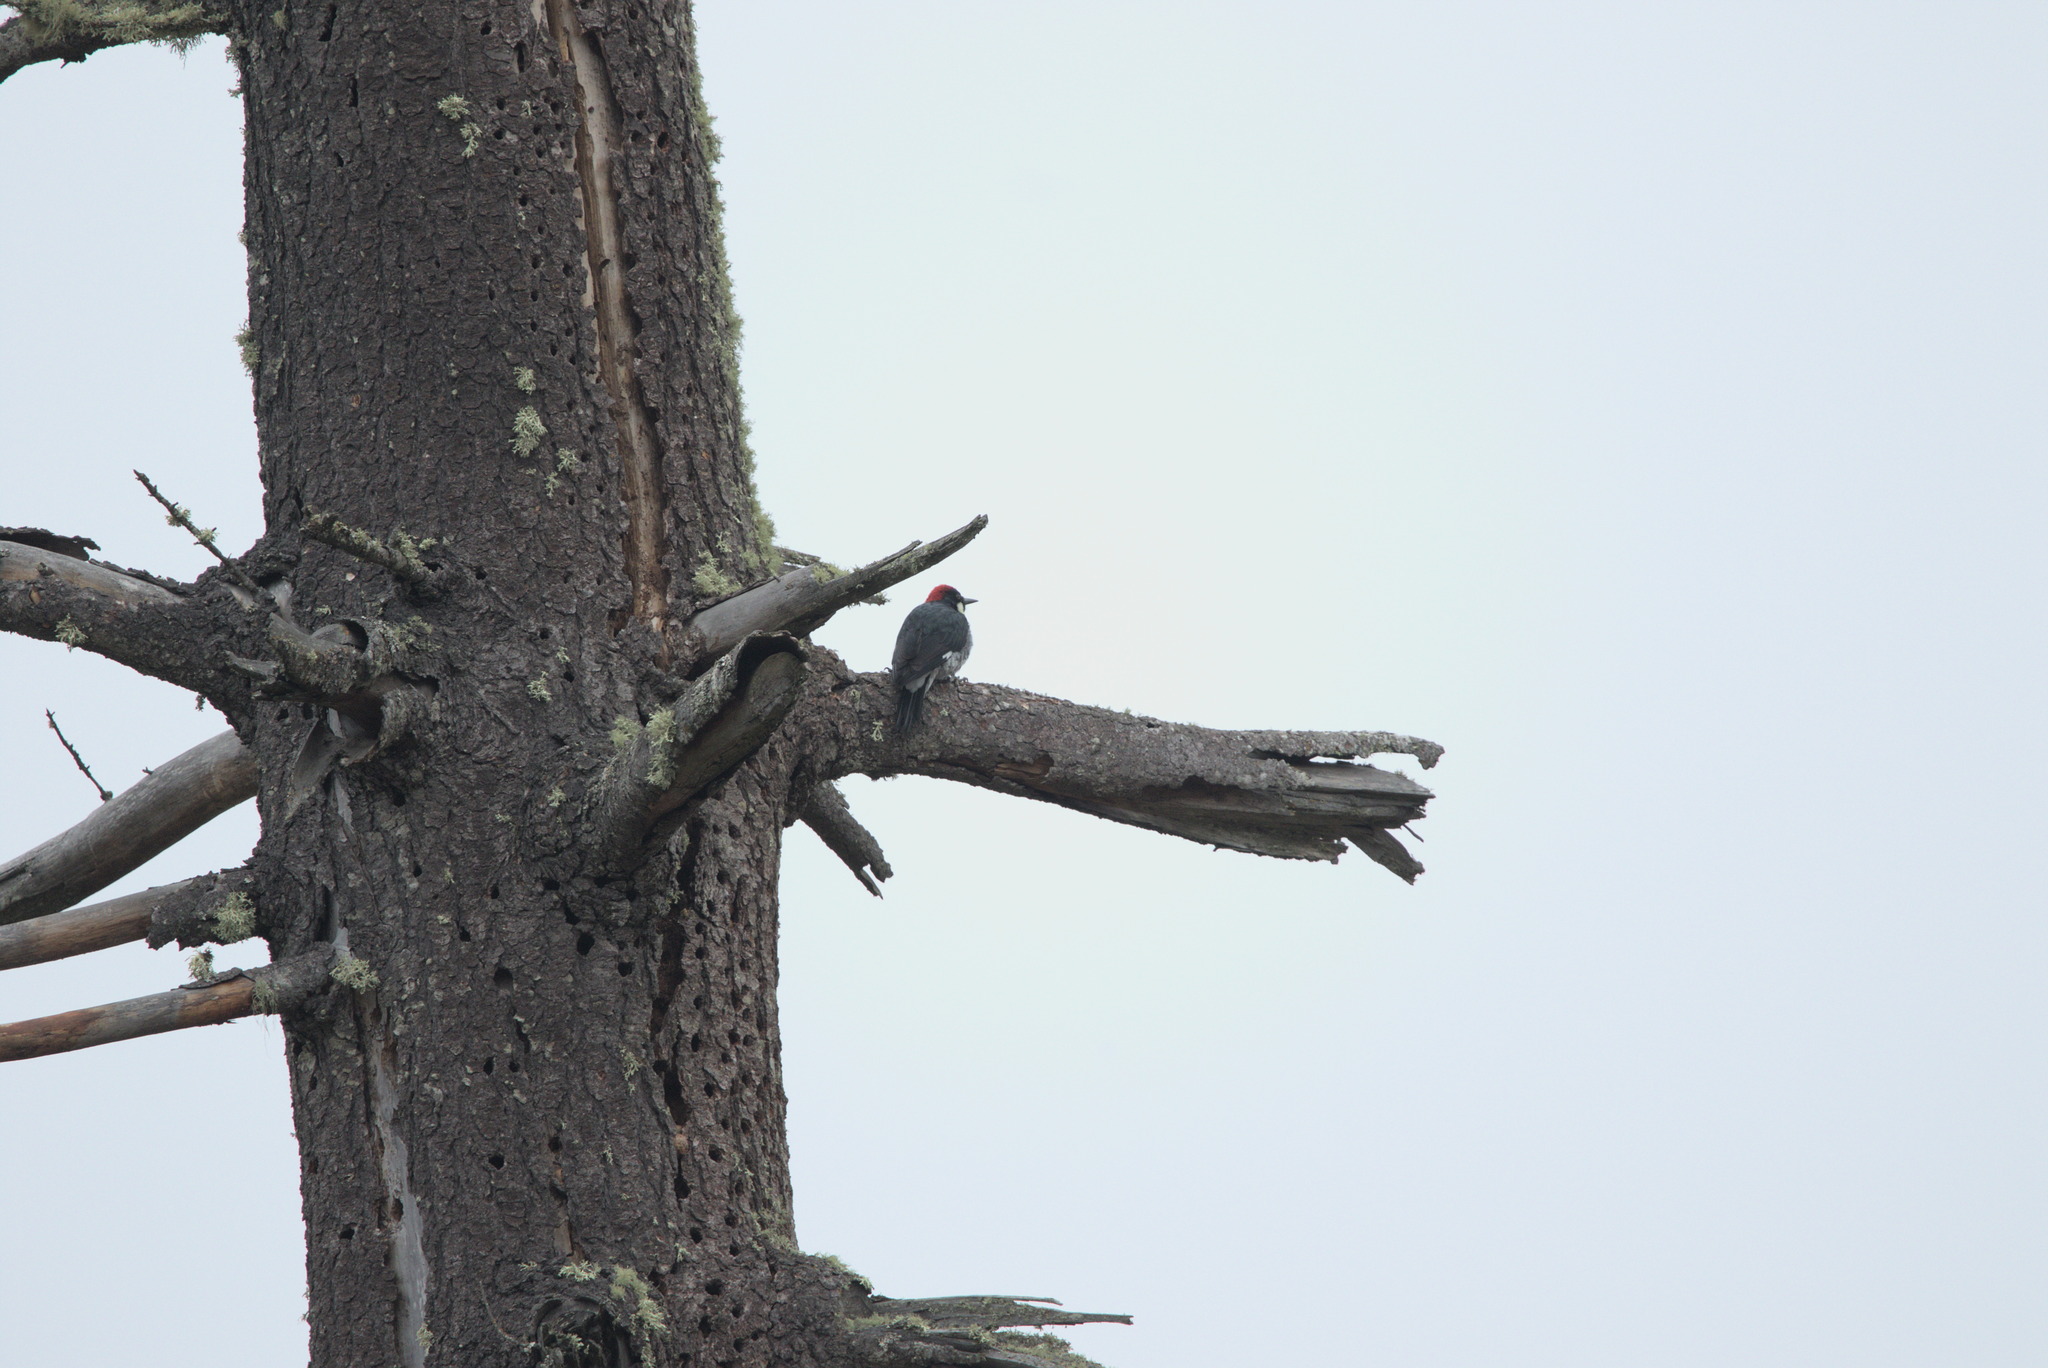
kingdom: Animalia
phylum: Chordata
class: Aves
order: Piciformes
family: Picidae
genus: Melanerpes
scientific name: Melanerpes formicivorus
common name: Acorn woodpecker
